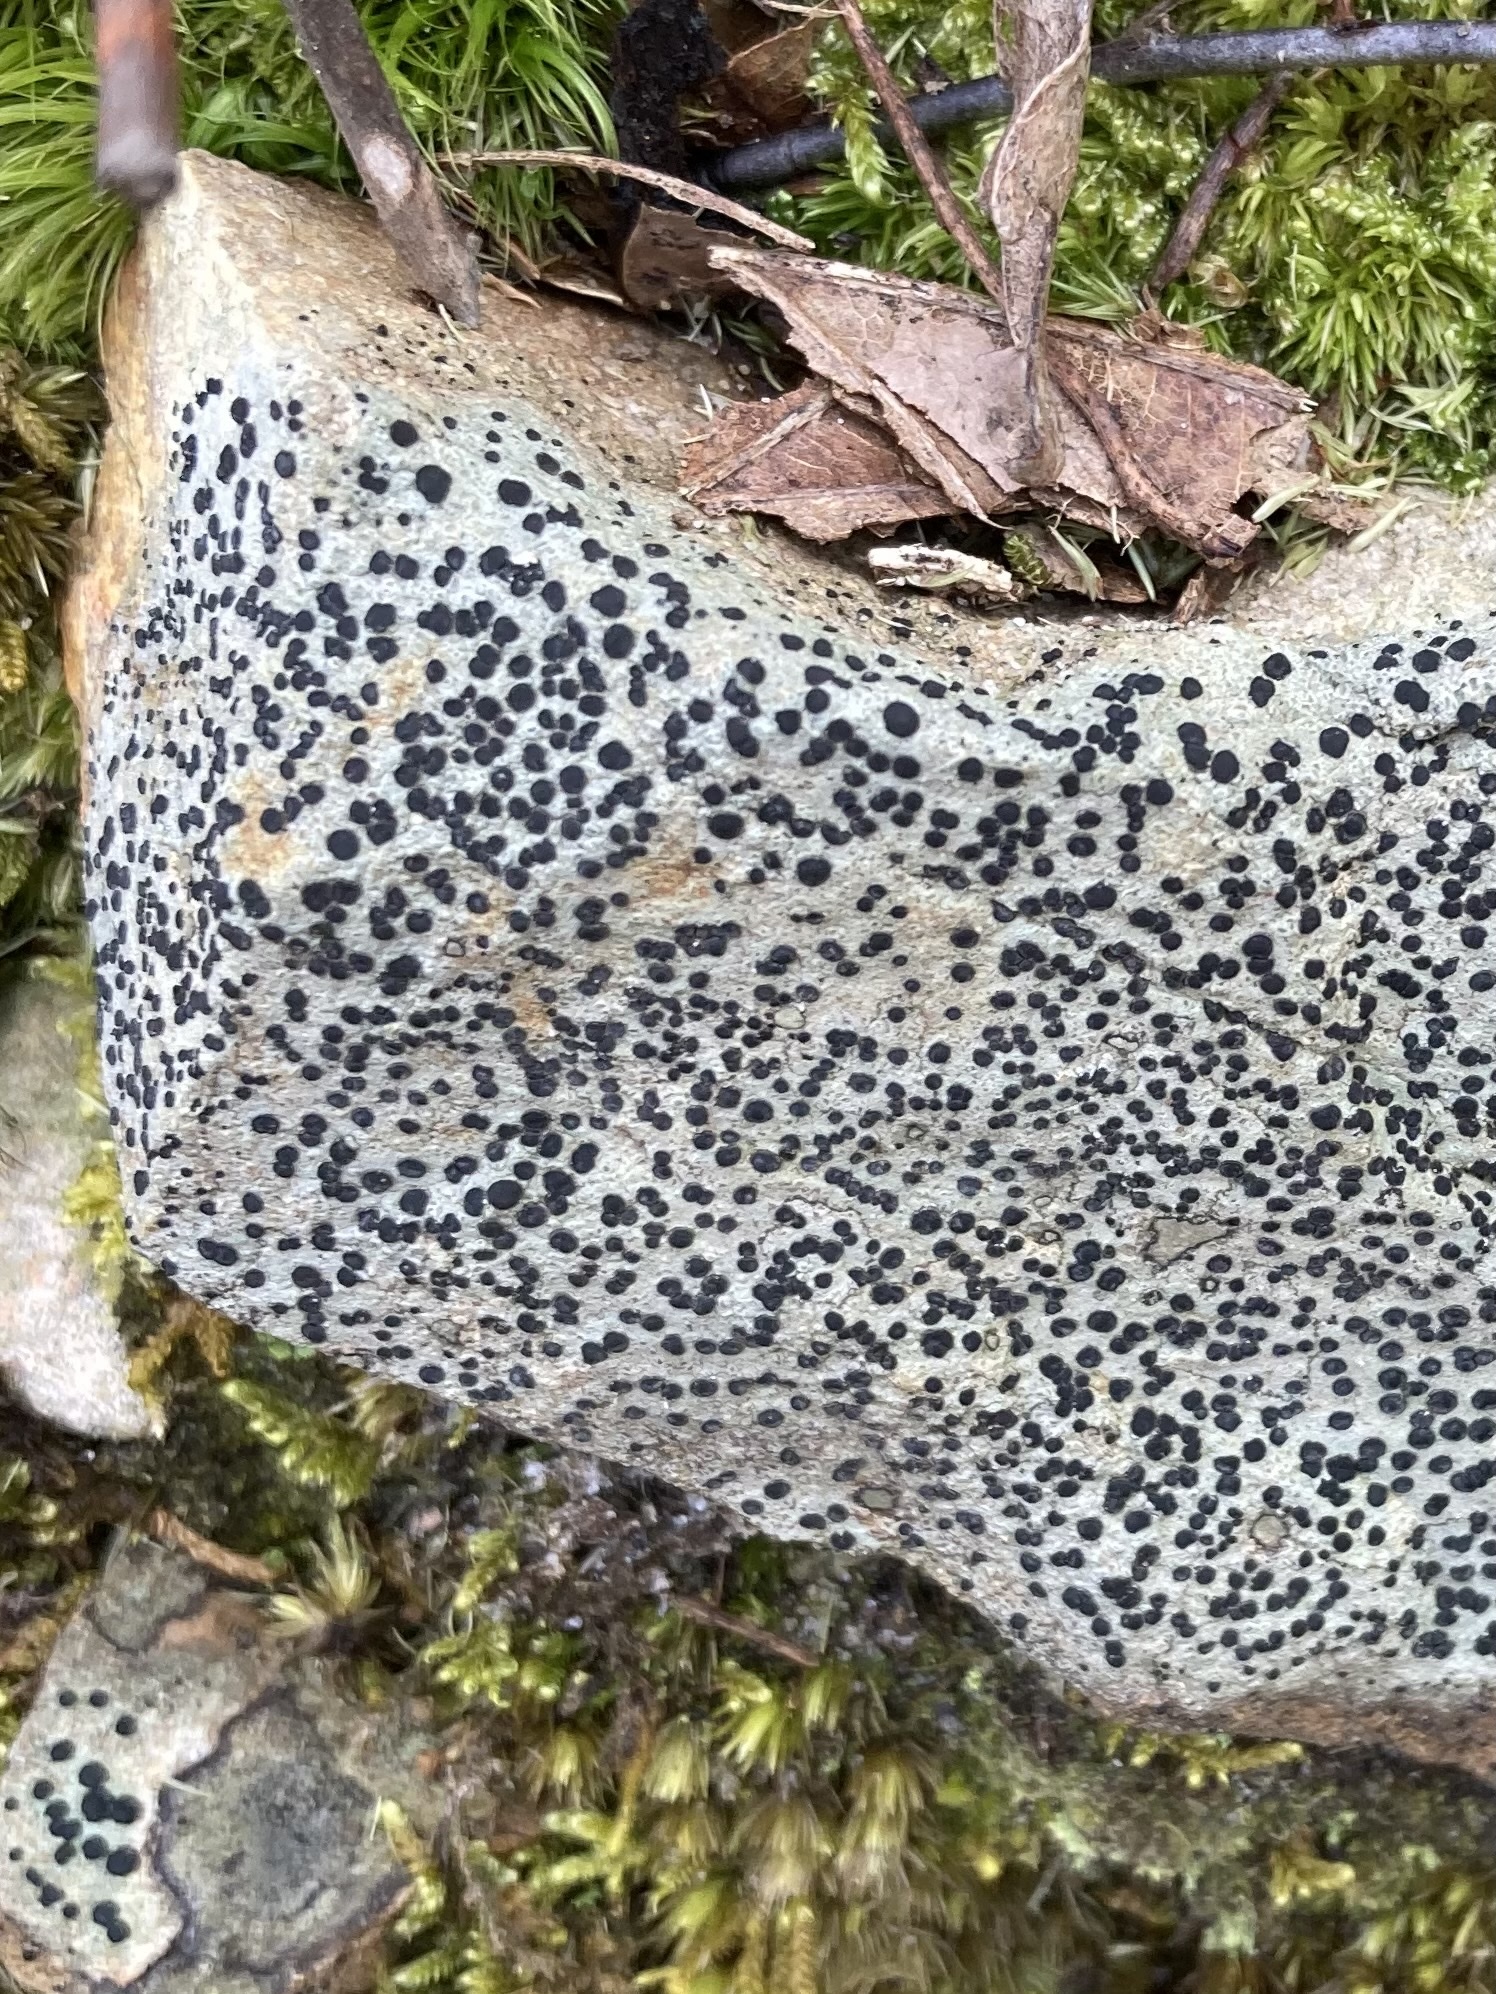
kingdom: Fungi
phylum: Ascomycota
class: Lecanoromycetes
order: Lecideales
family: Lecideaceae
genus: Porpidia
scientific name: Porpidia crustulata
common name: Concentric boulder lichen
